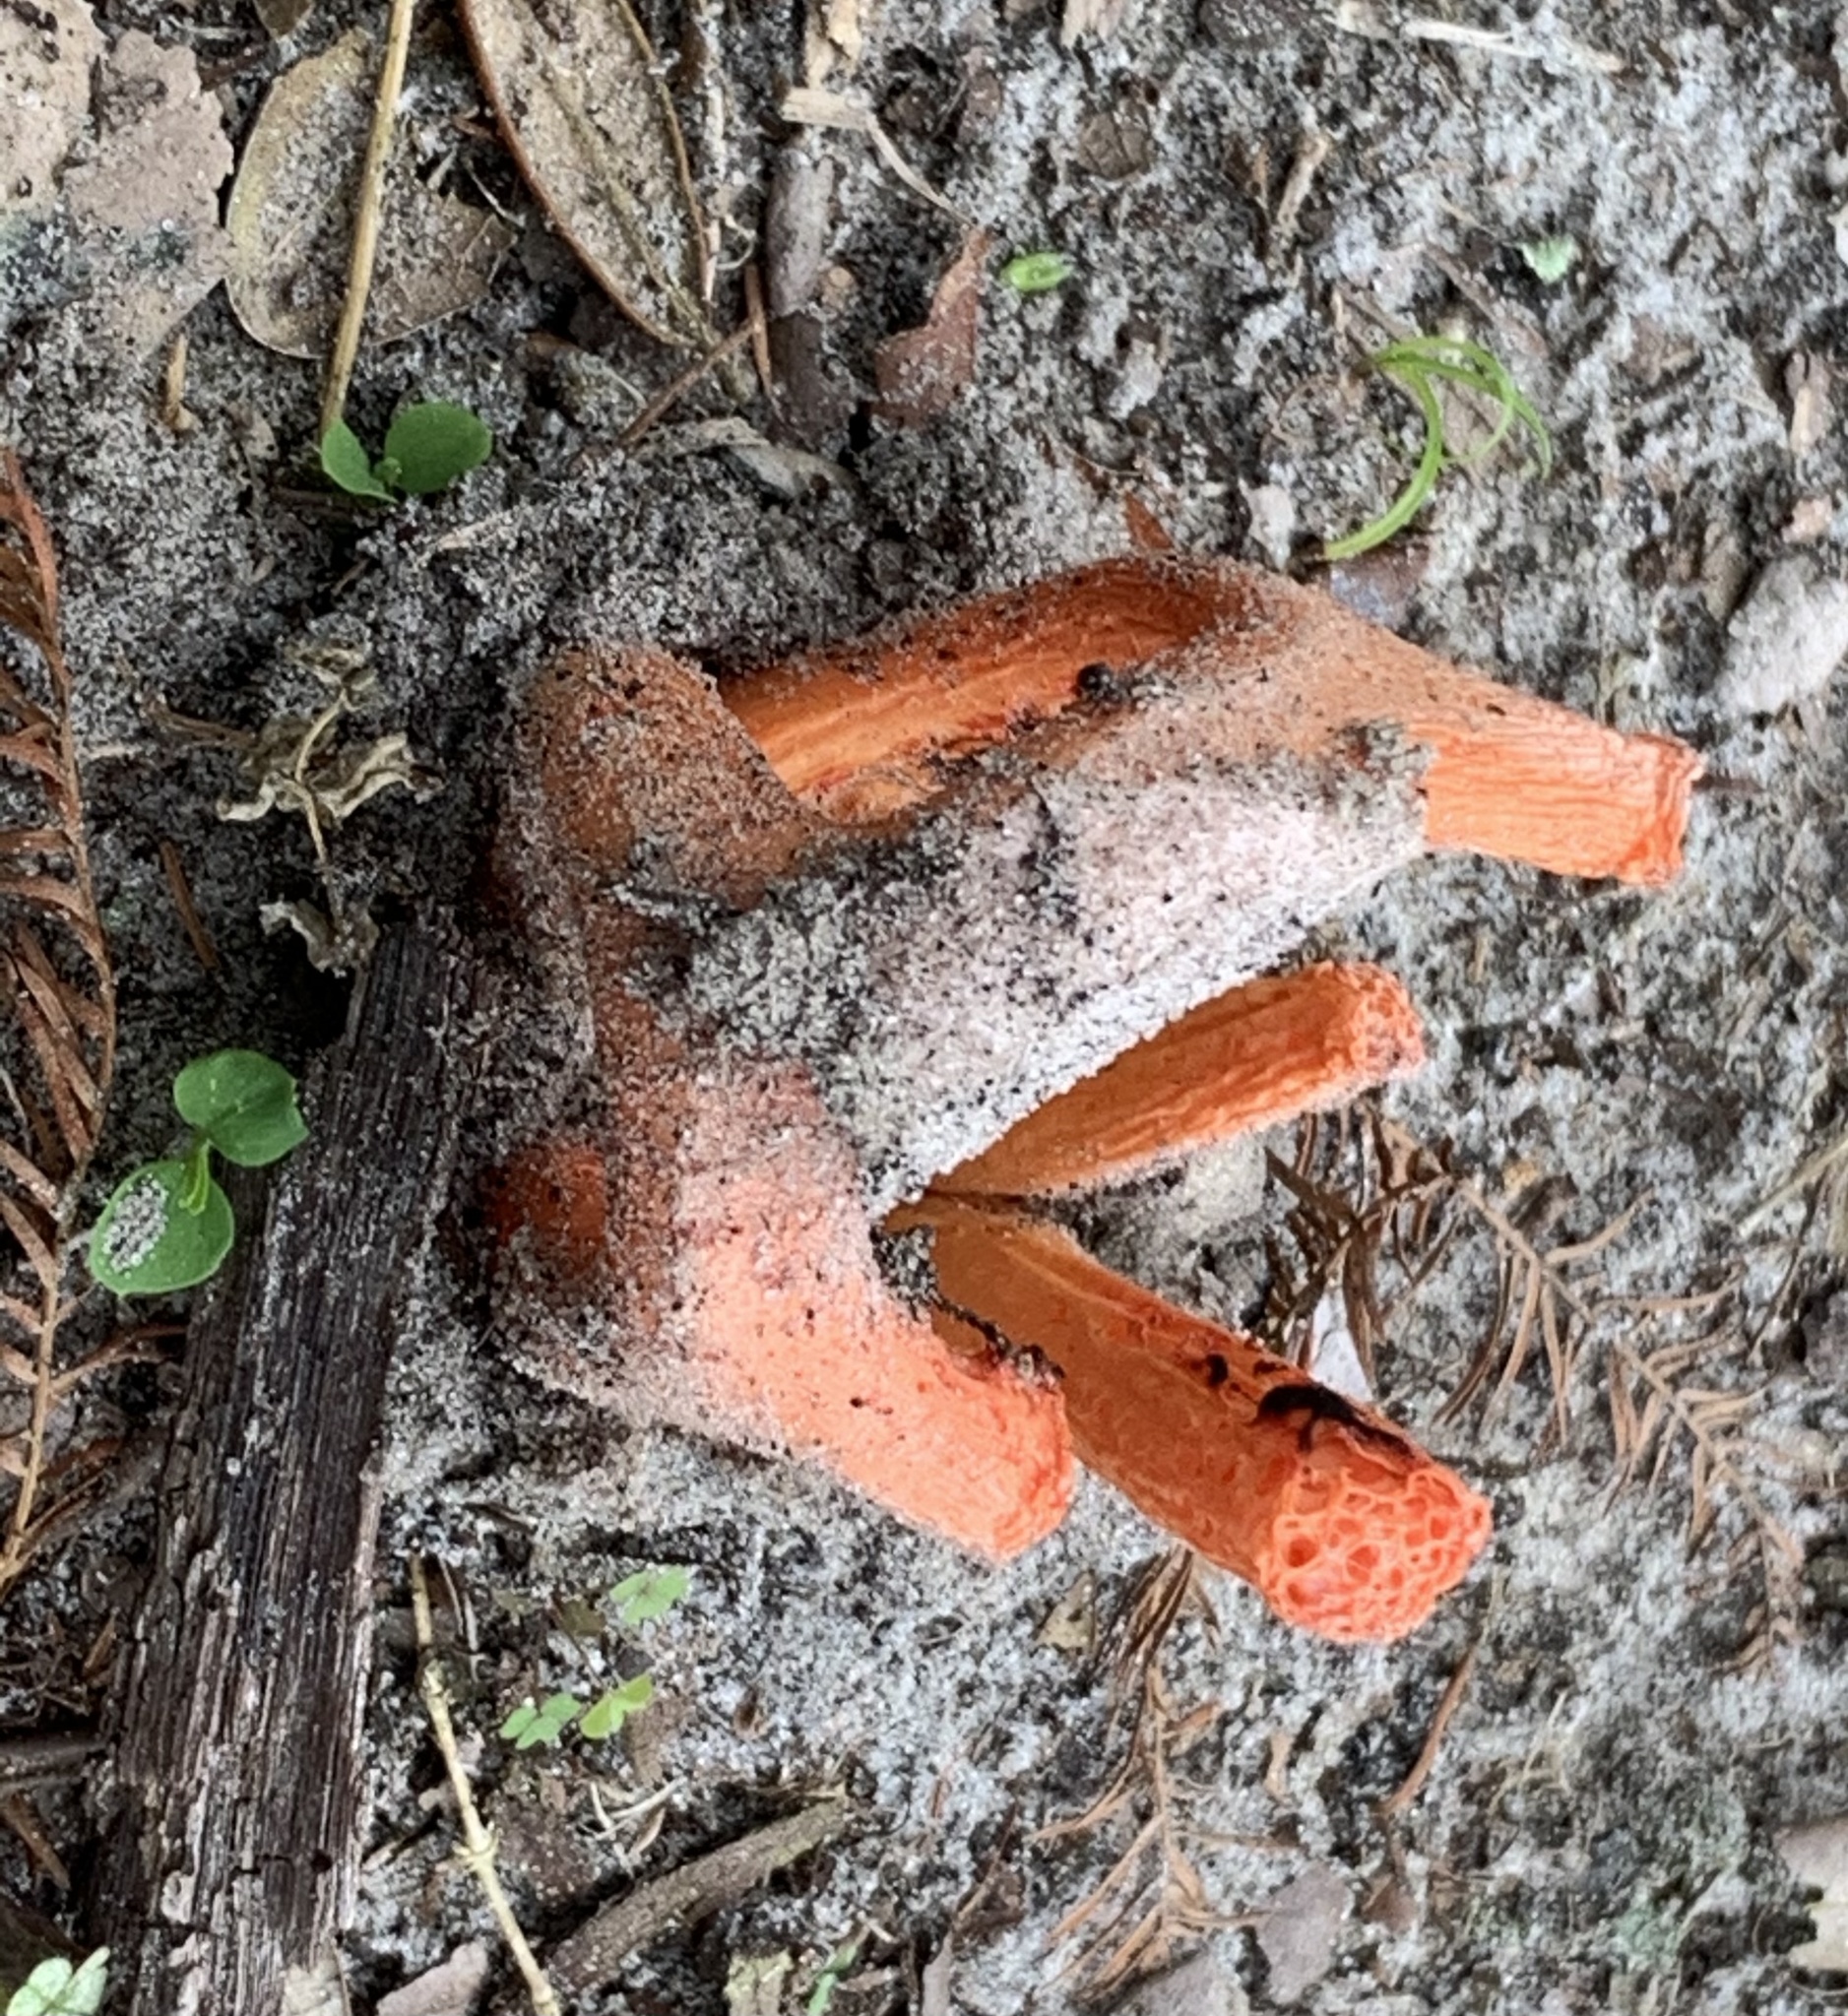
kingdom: Fungi
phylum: Basidiomycota
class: Agaricomycetes
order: Phallales
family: Phallaceae
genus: Clathrus
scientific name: Clathrus columnatus
